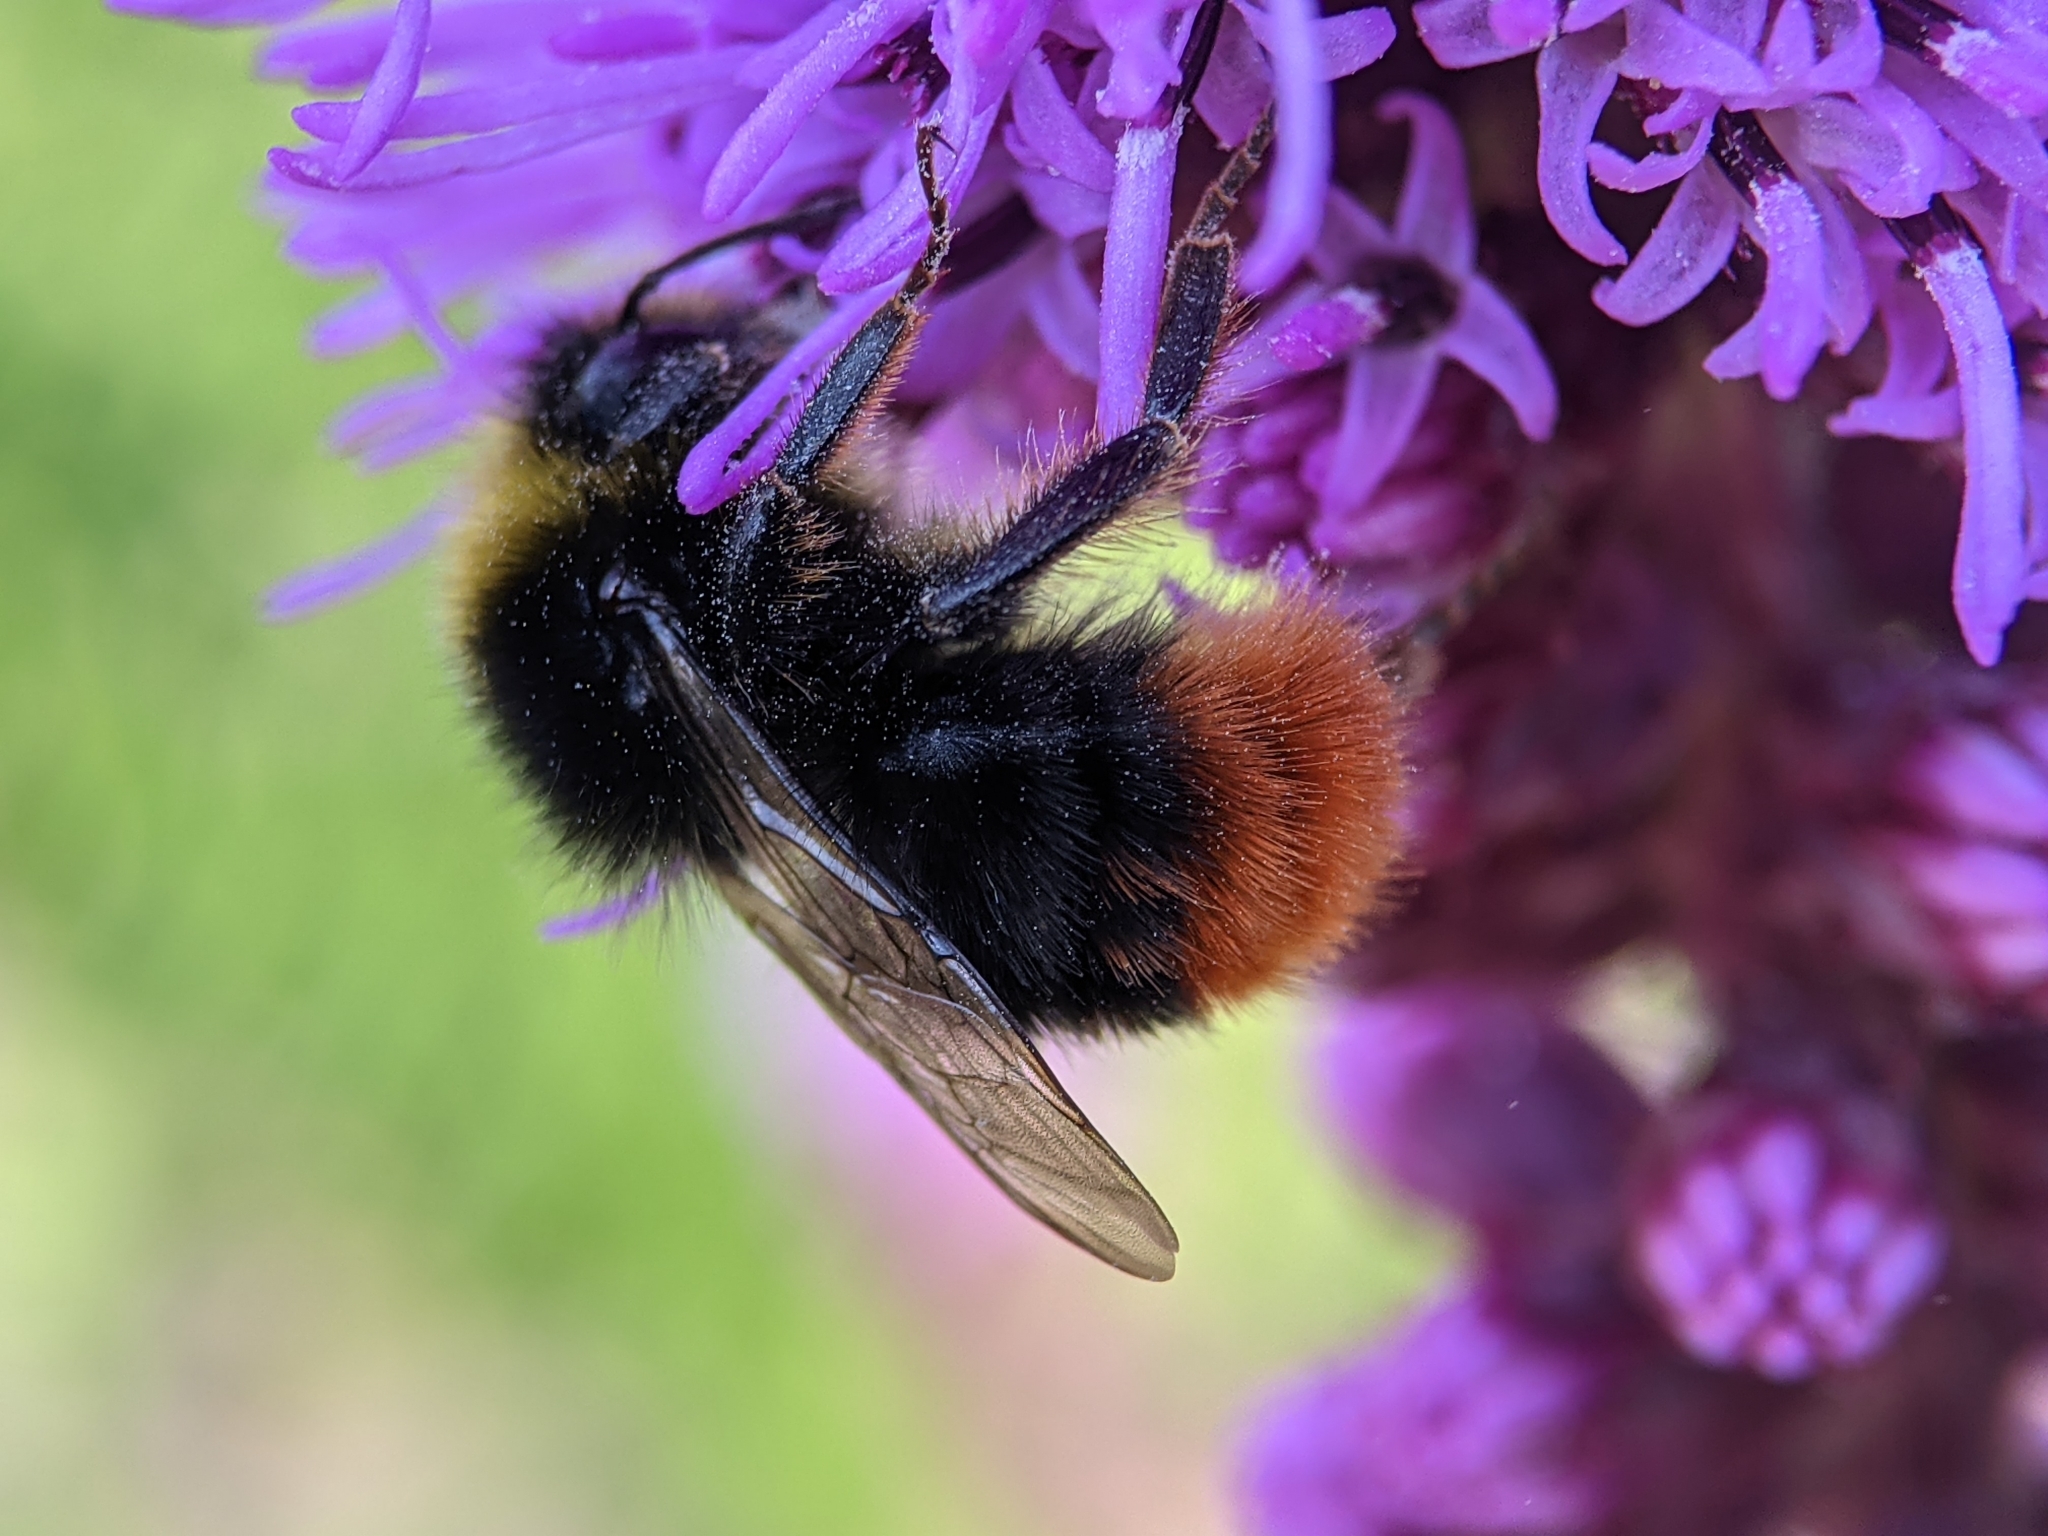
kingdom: Animalia
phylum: Arthropoda
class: Insecta
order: Hymenoptera
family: Apidae
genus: Bombus
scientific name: Bombus lapidarius
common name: Large red-tailed humble-bee
